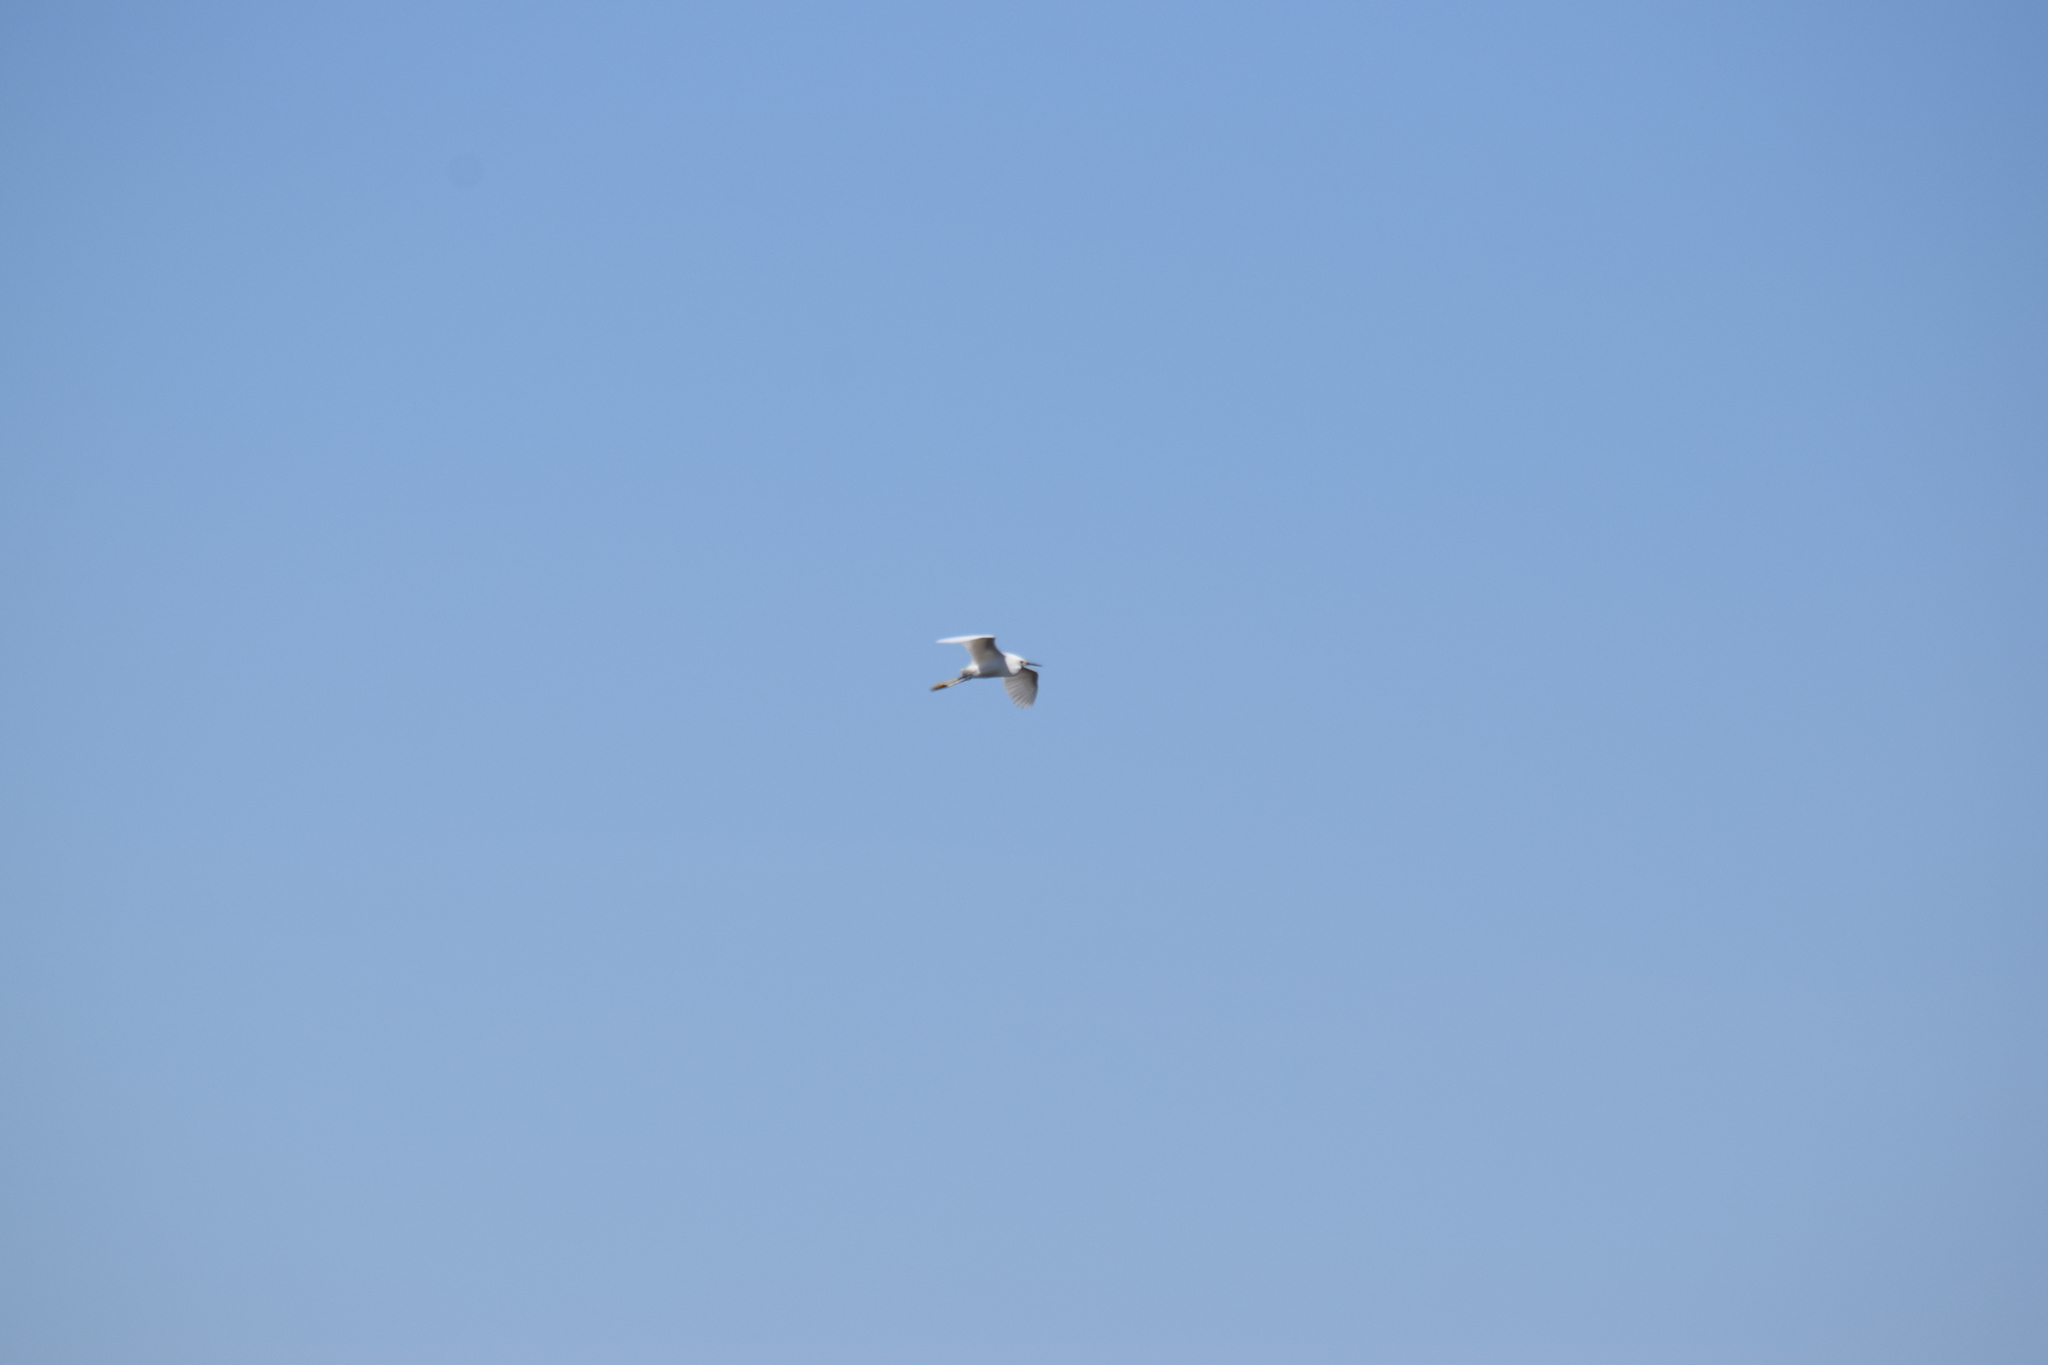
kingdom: Animalia
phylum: Chordata
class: Aves
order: Pelecaniformes
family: Ardeidae
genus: Egretta
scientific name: Egretta thula
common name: Snowy egret
